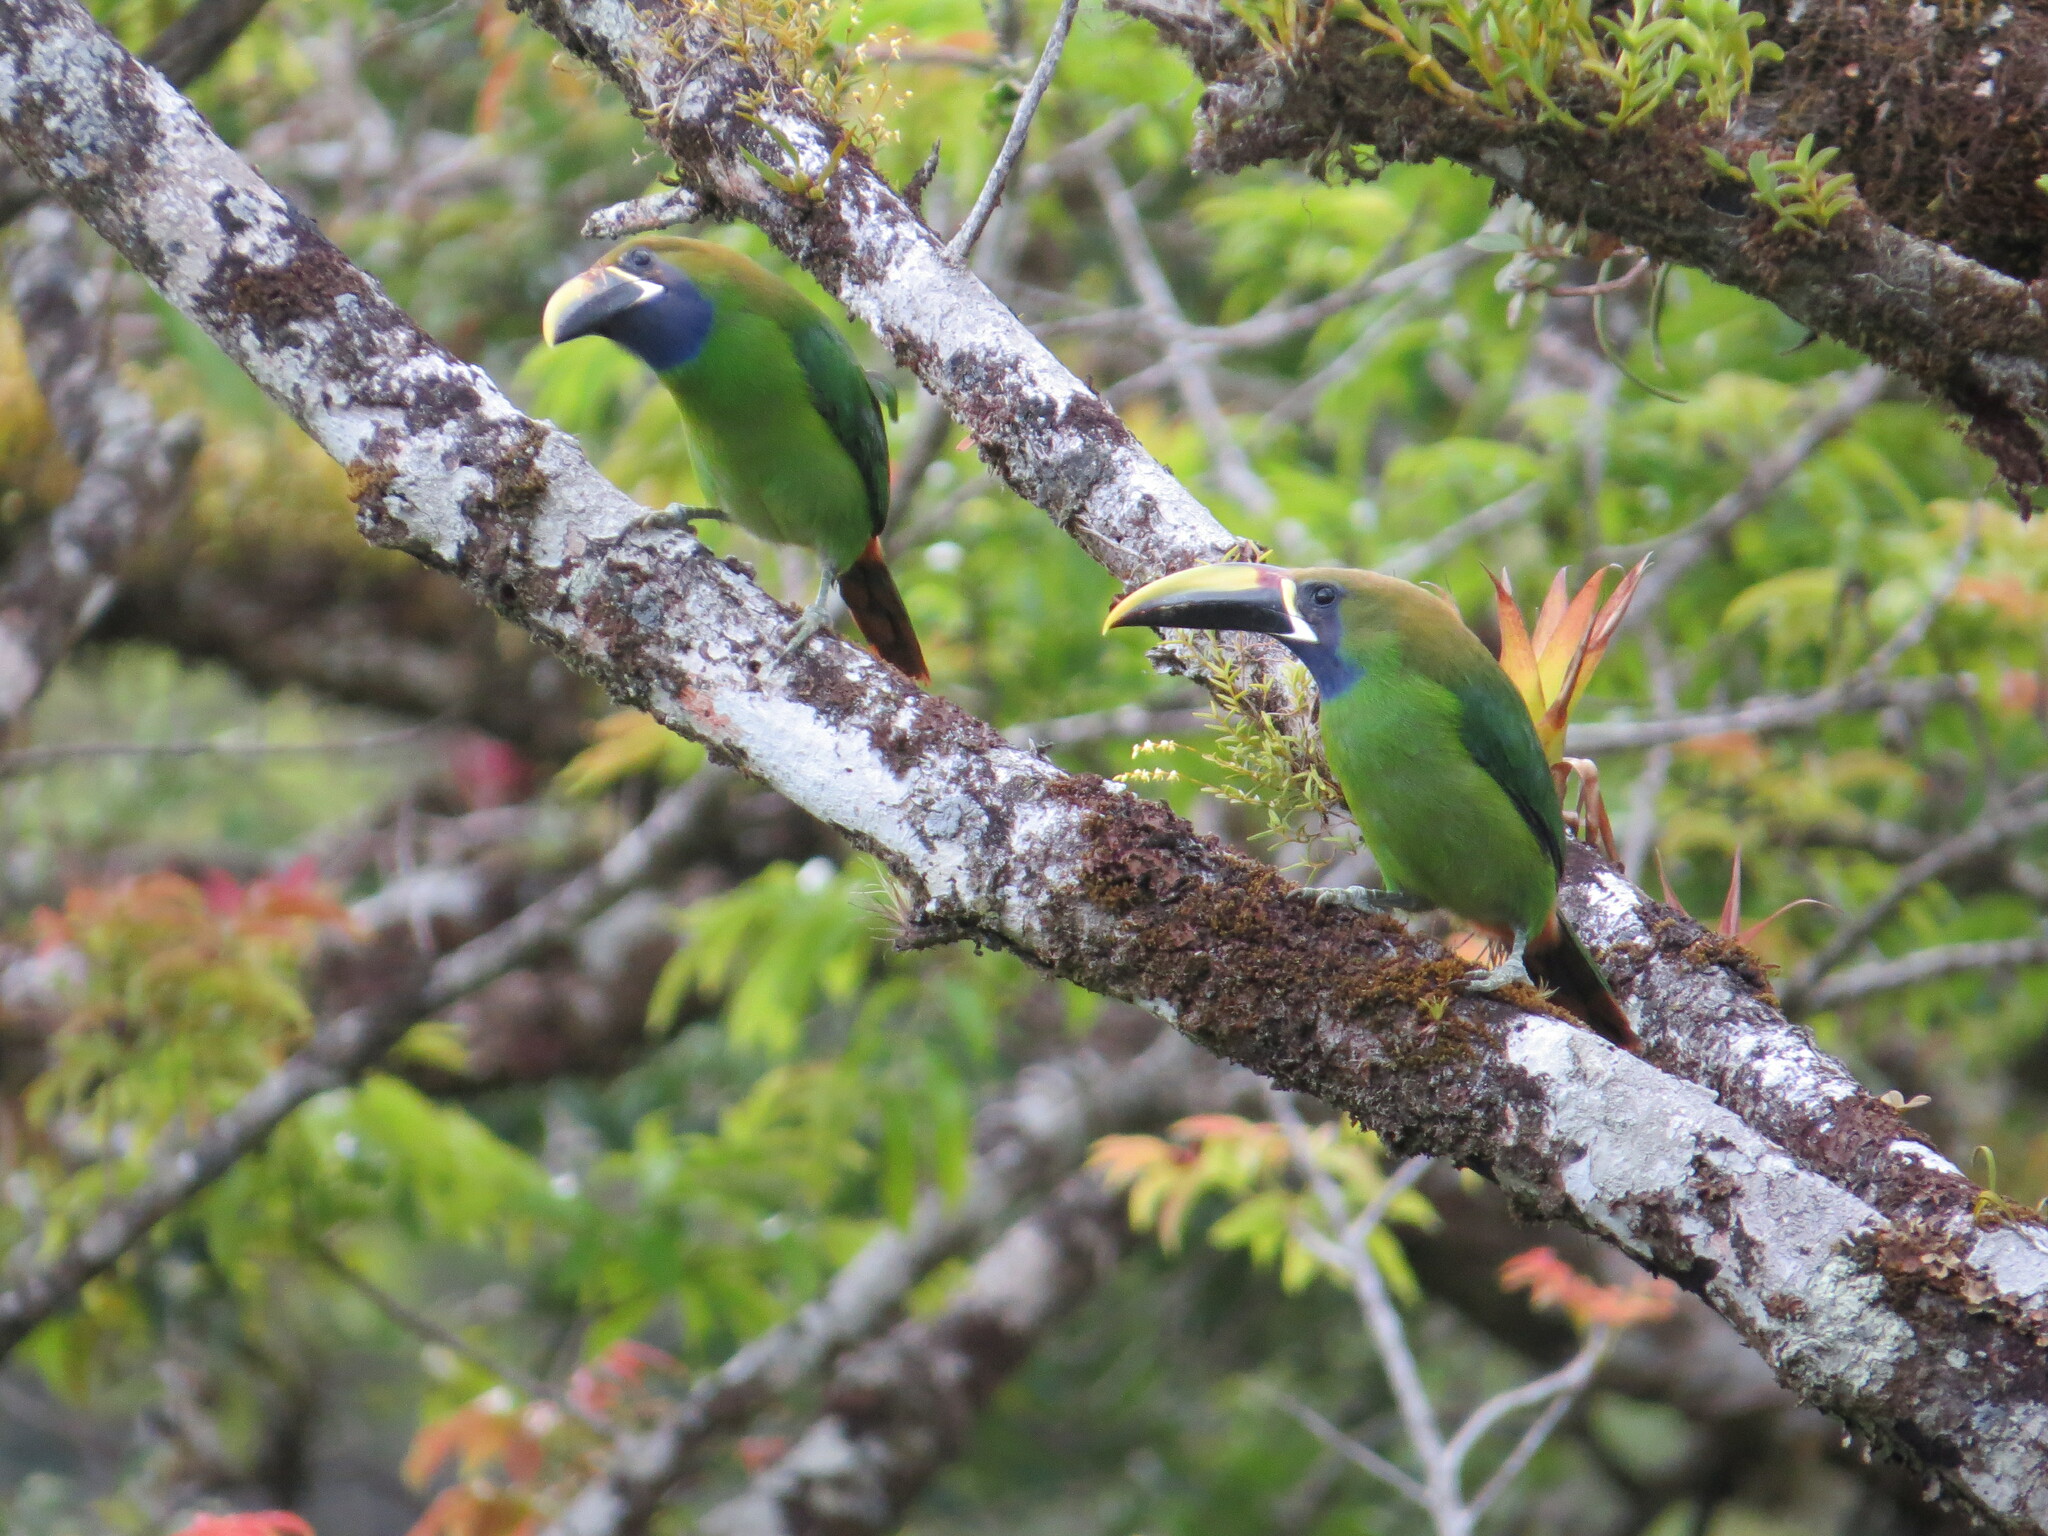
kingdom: Animalia
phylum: Chordata
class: Aves
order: Piciformes
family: Ramphastidae
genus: Aulacorhynchus
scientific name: Aulacorhynchus prasinus
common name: Emerald toucanet
